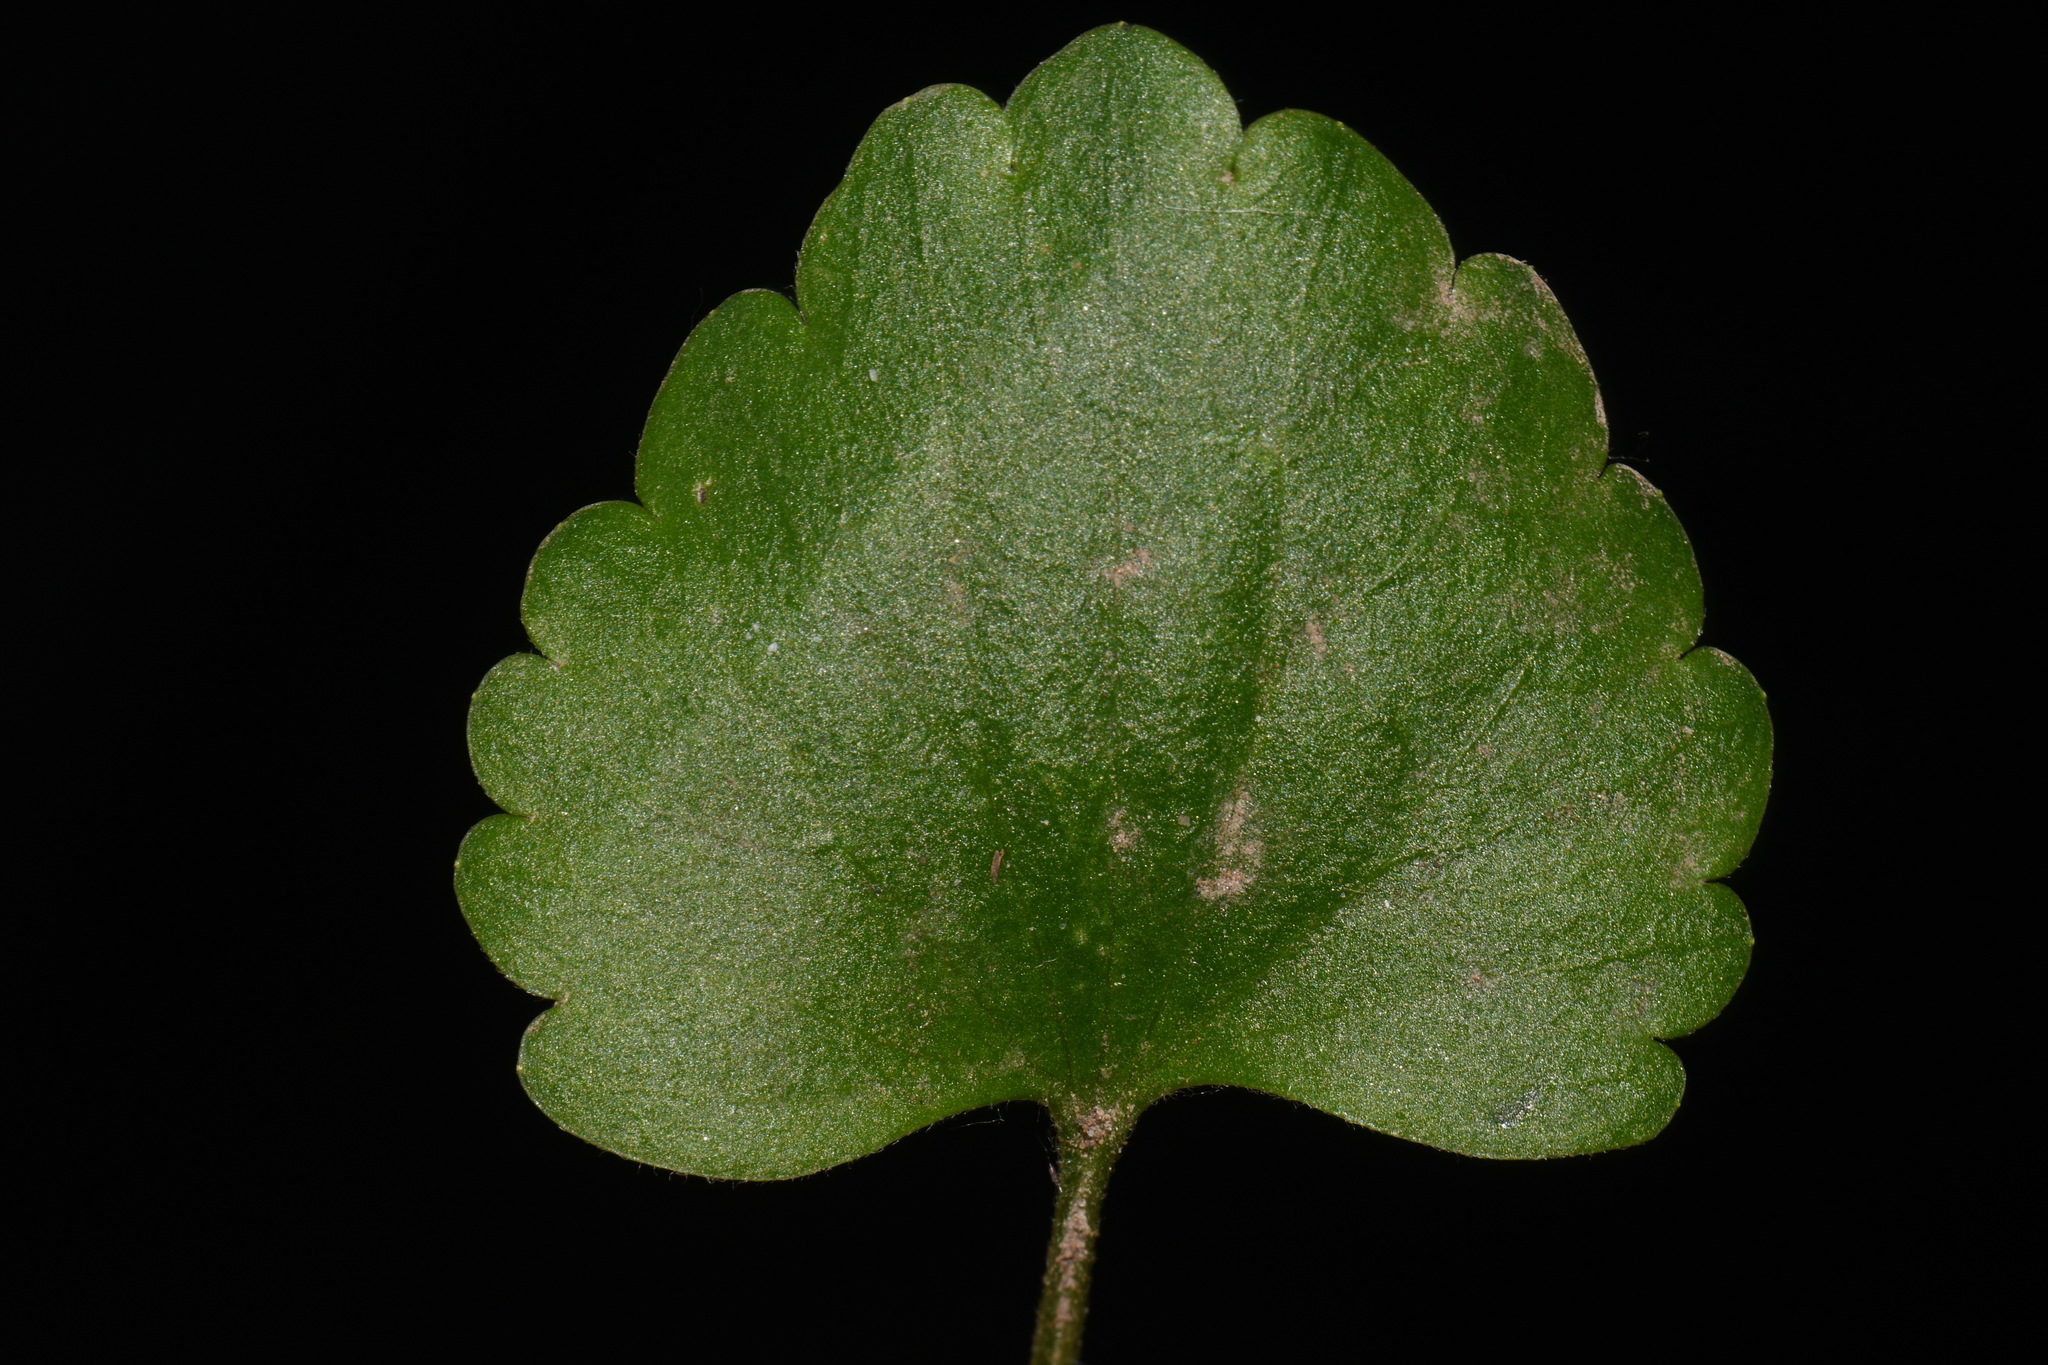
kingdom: Plantae
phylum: Tracheophyta
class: Magnoliopsida
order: Ranunculales
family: Ranunculaceae
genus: Ranunculus
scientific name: Ranunculus abortivus
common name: Early wood buttercup
